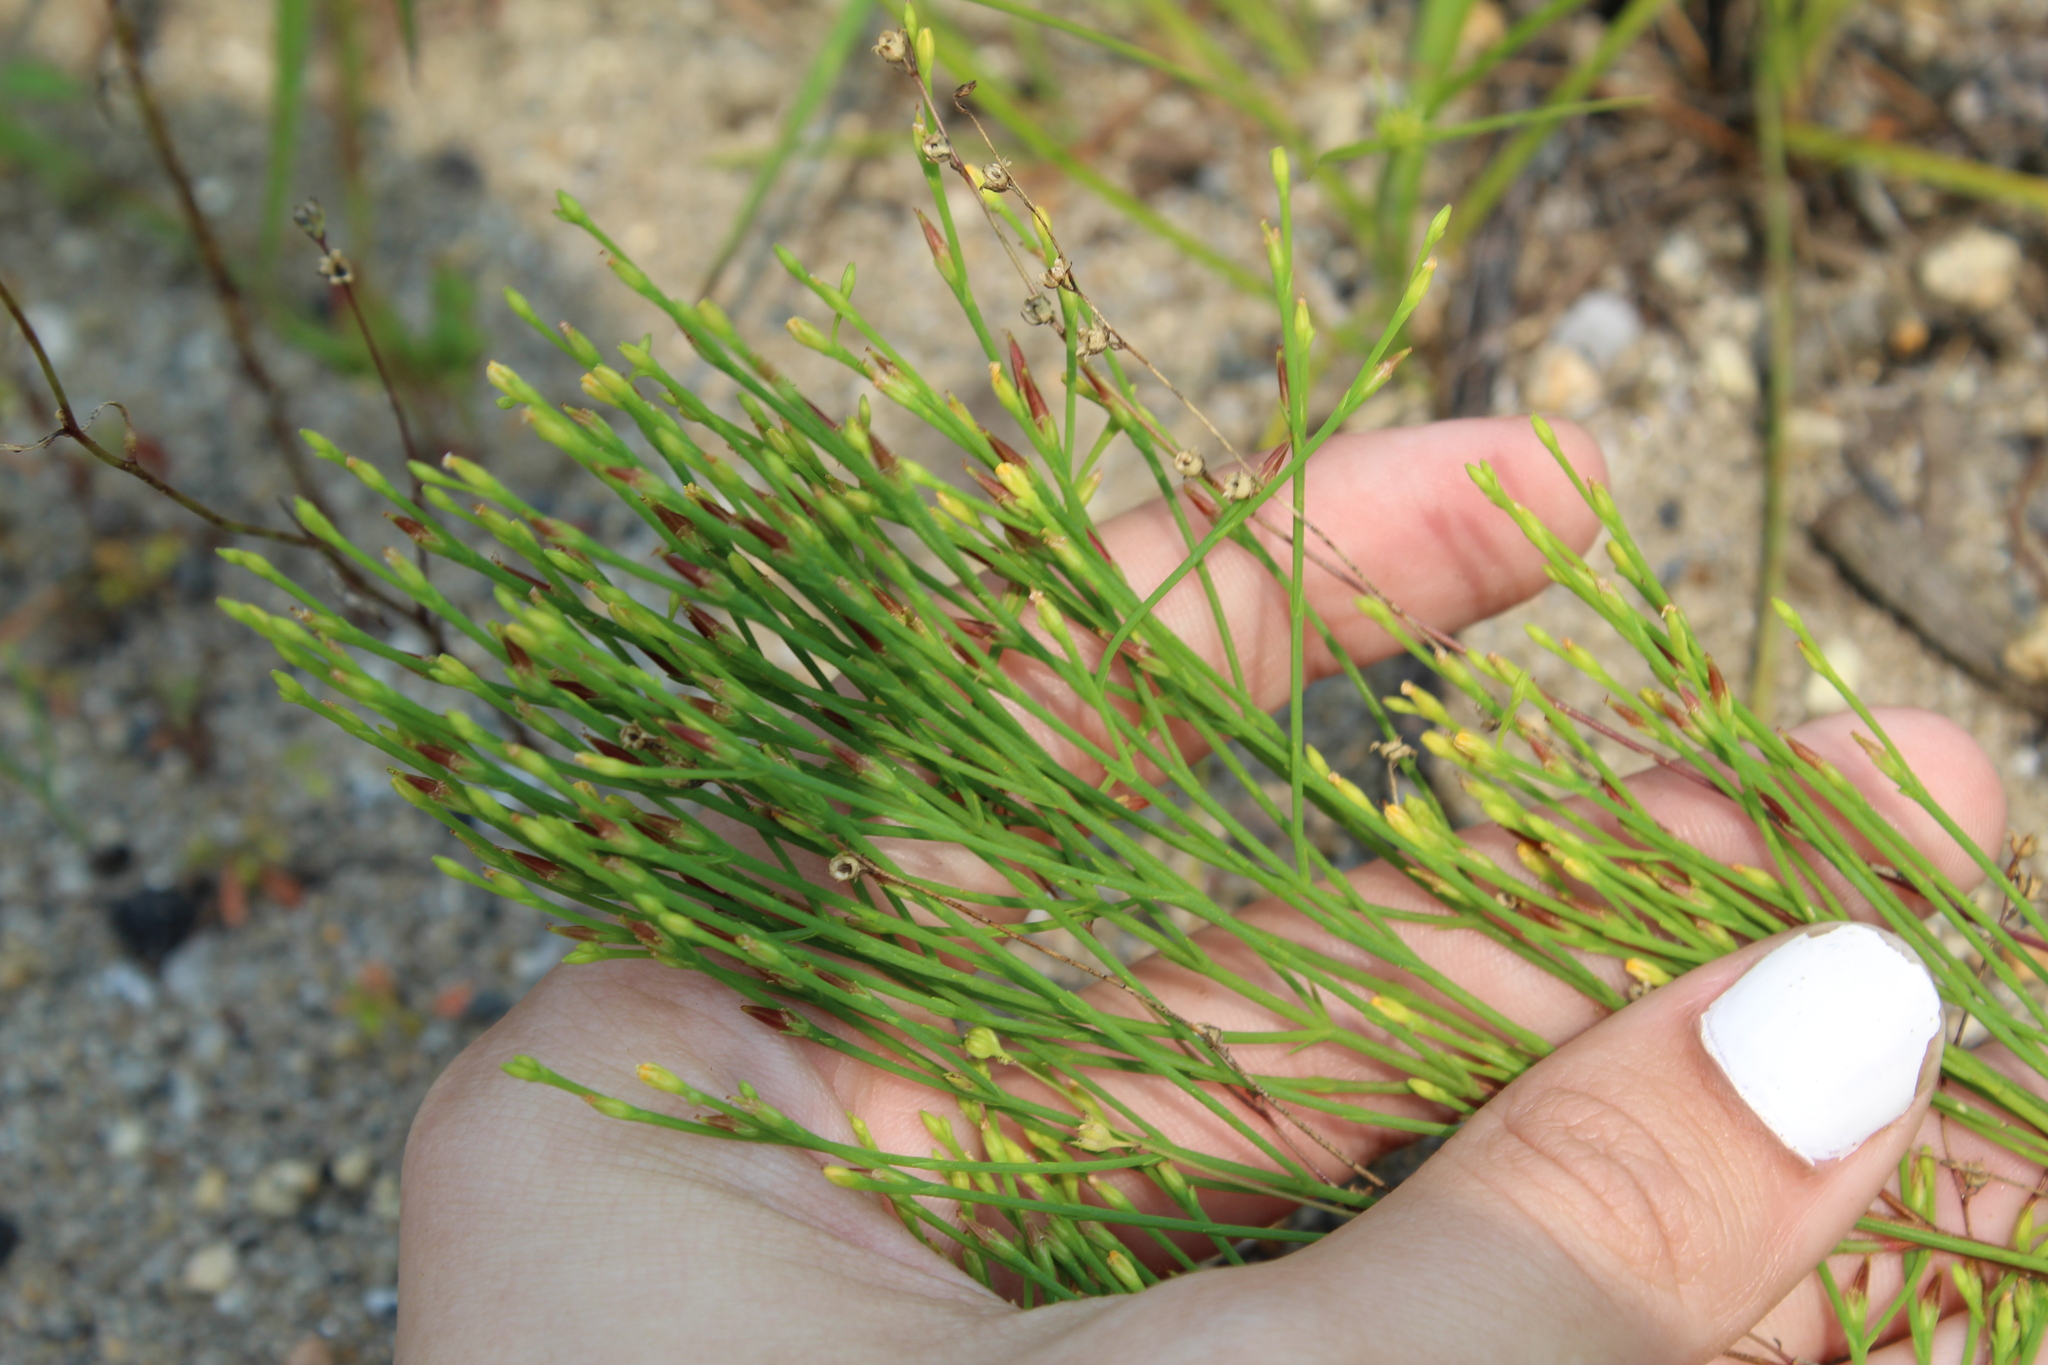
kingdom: Plantae
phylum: Tracheophyta
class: Magnoliopsida
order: Malpighiales
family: Hypericaceae
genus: Hypericum
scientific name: Hypericum gentianoides
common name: Gentian-leaved st. john's-wort
